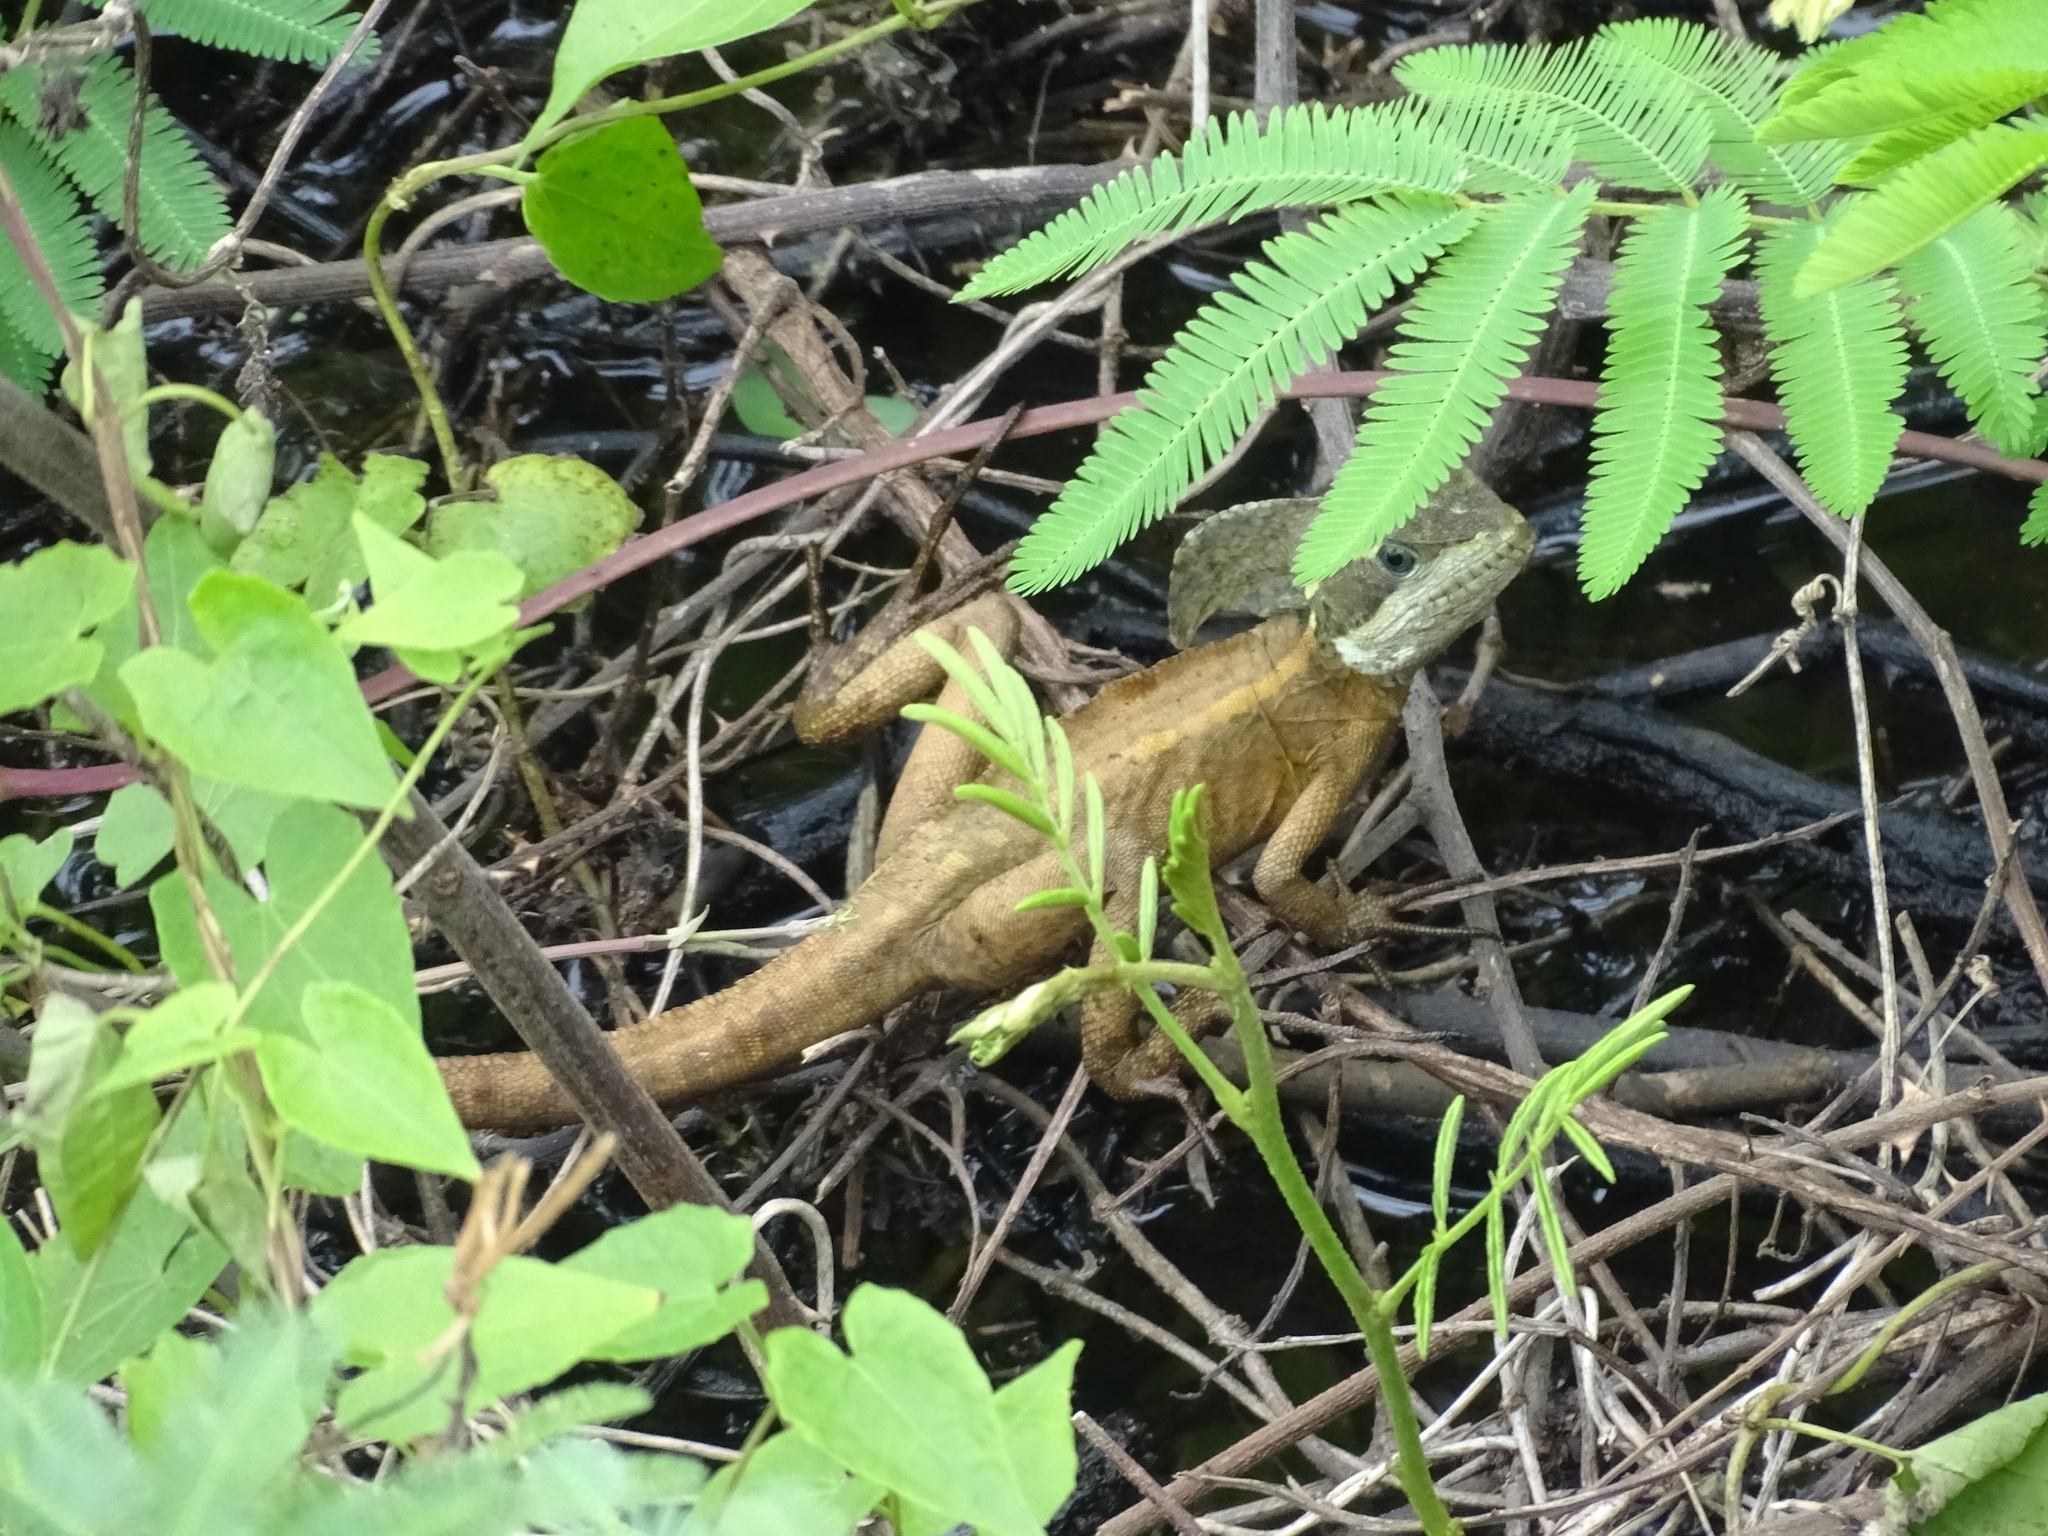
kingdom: Animalia
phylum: Chordata
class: Squamata
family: Corytophanidae
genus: Basiliscus
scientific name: Basiliscus vittatus
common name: Brown basilisk
